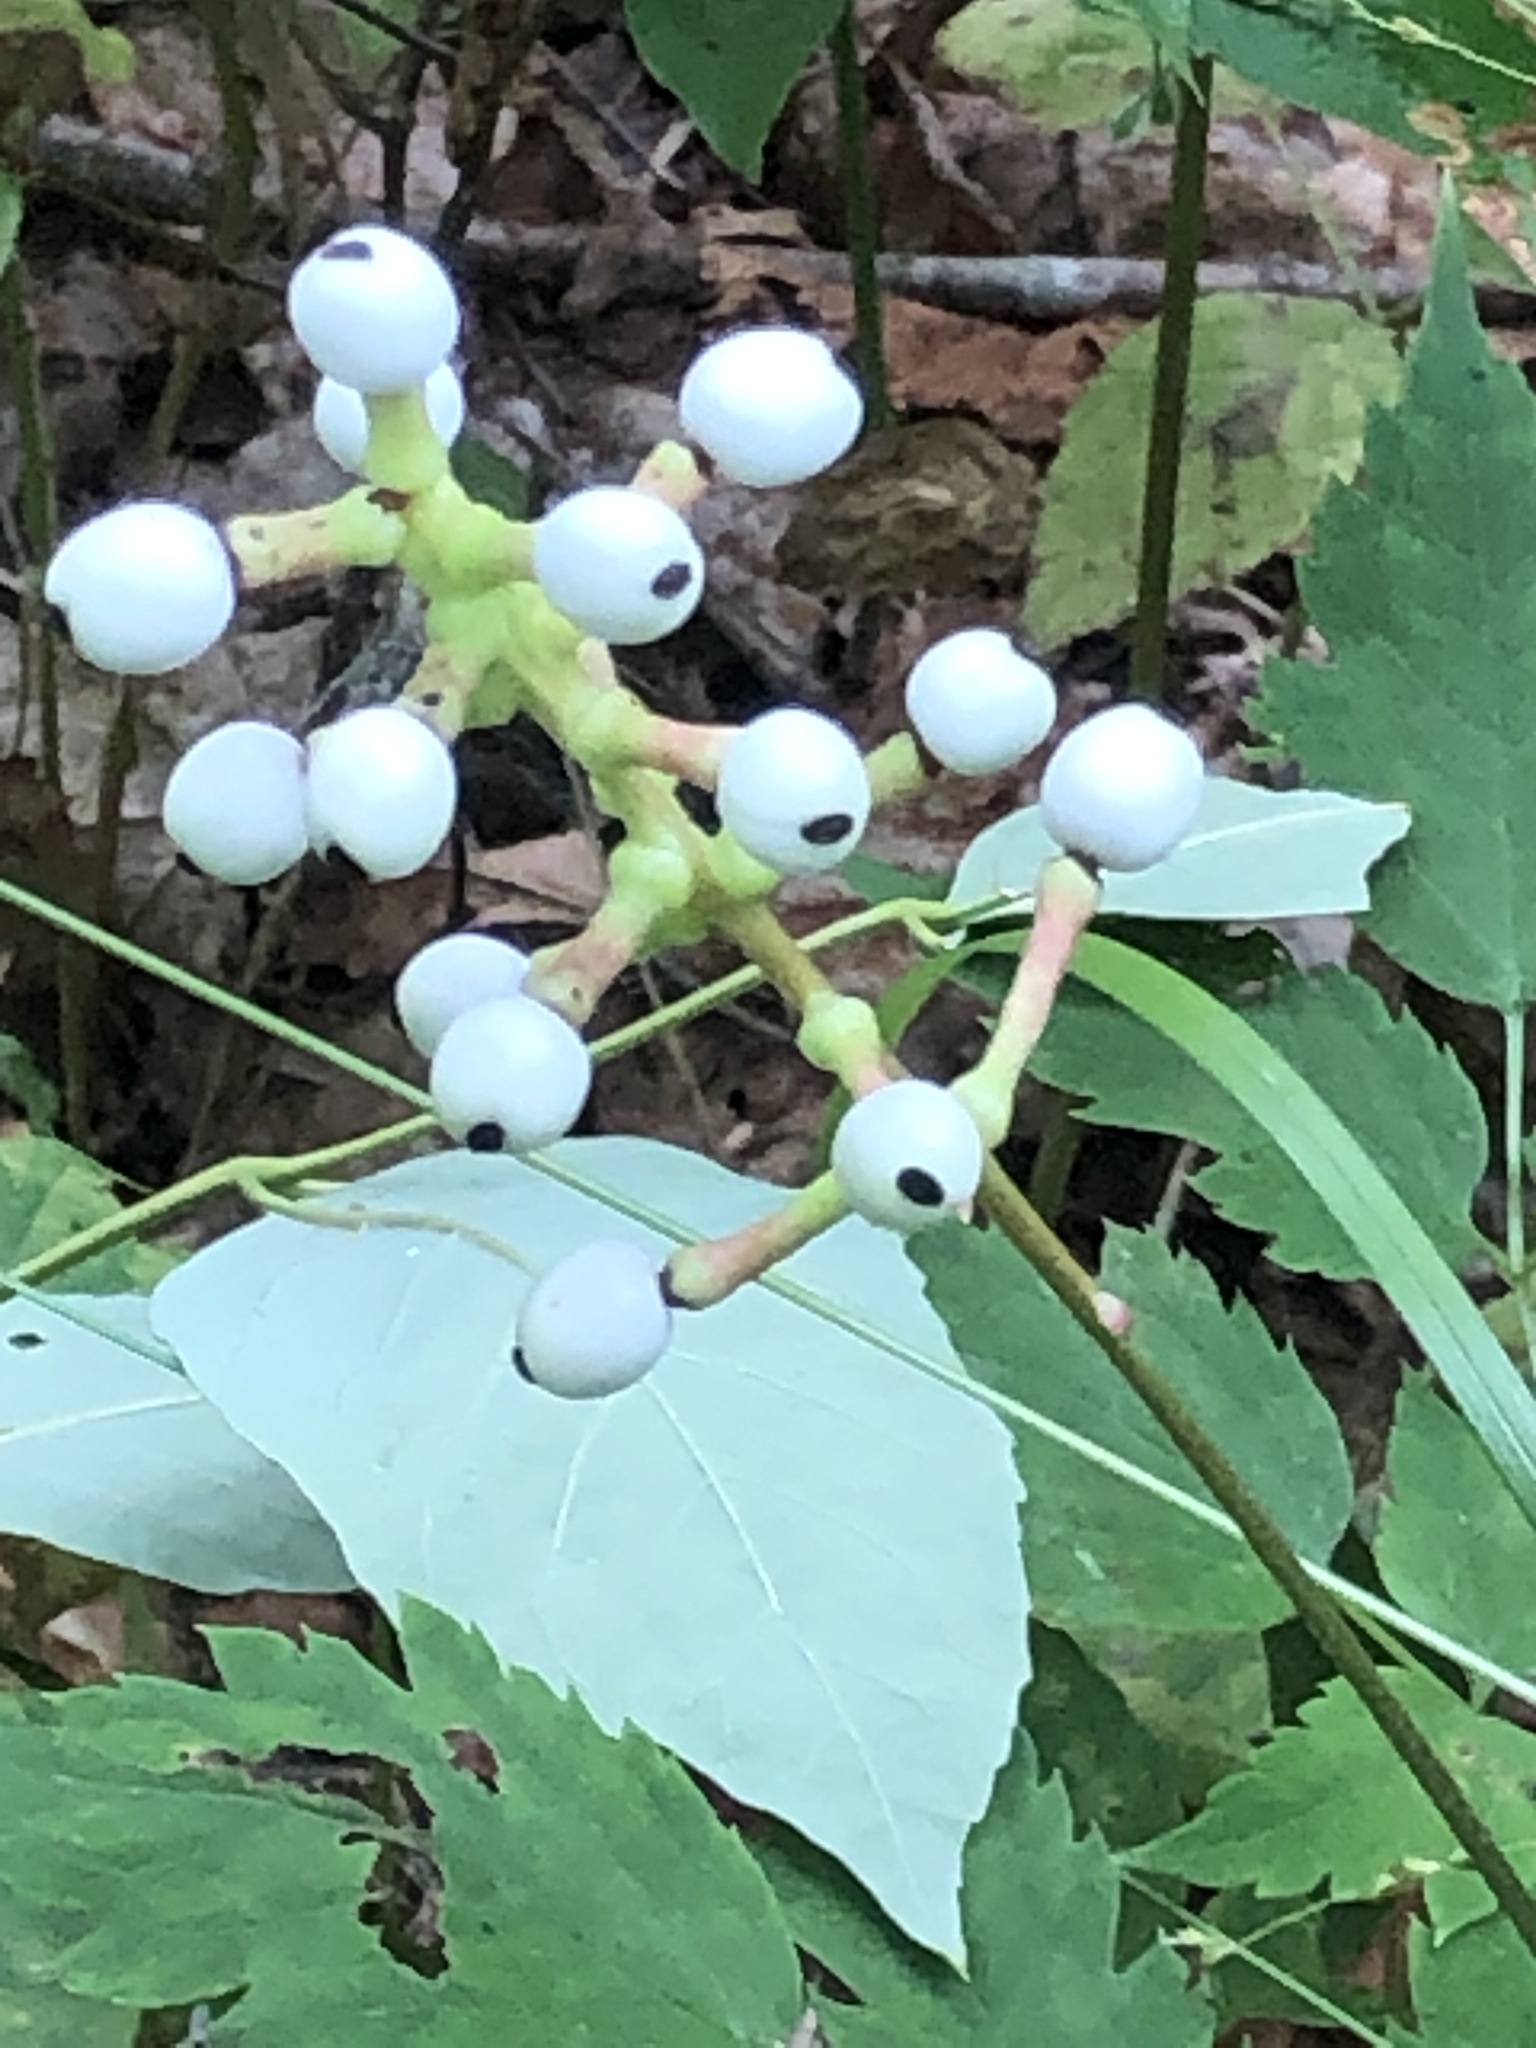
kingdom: Plantae
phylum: Tracheophyta
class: Magnoliopsida
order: Ranunculales
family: Ranunculaceae
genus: Actaea
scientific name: Actaea pachypoda
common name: Doll's-eyes
